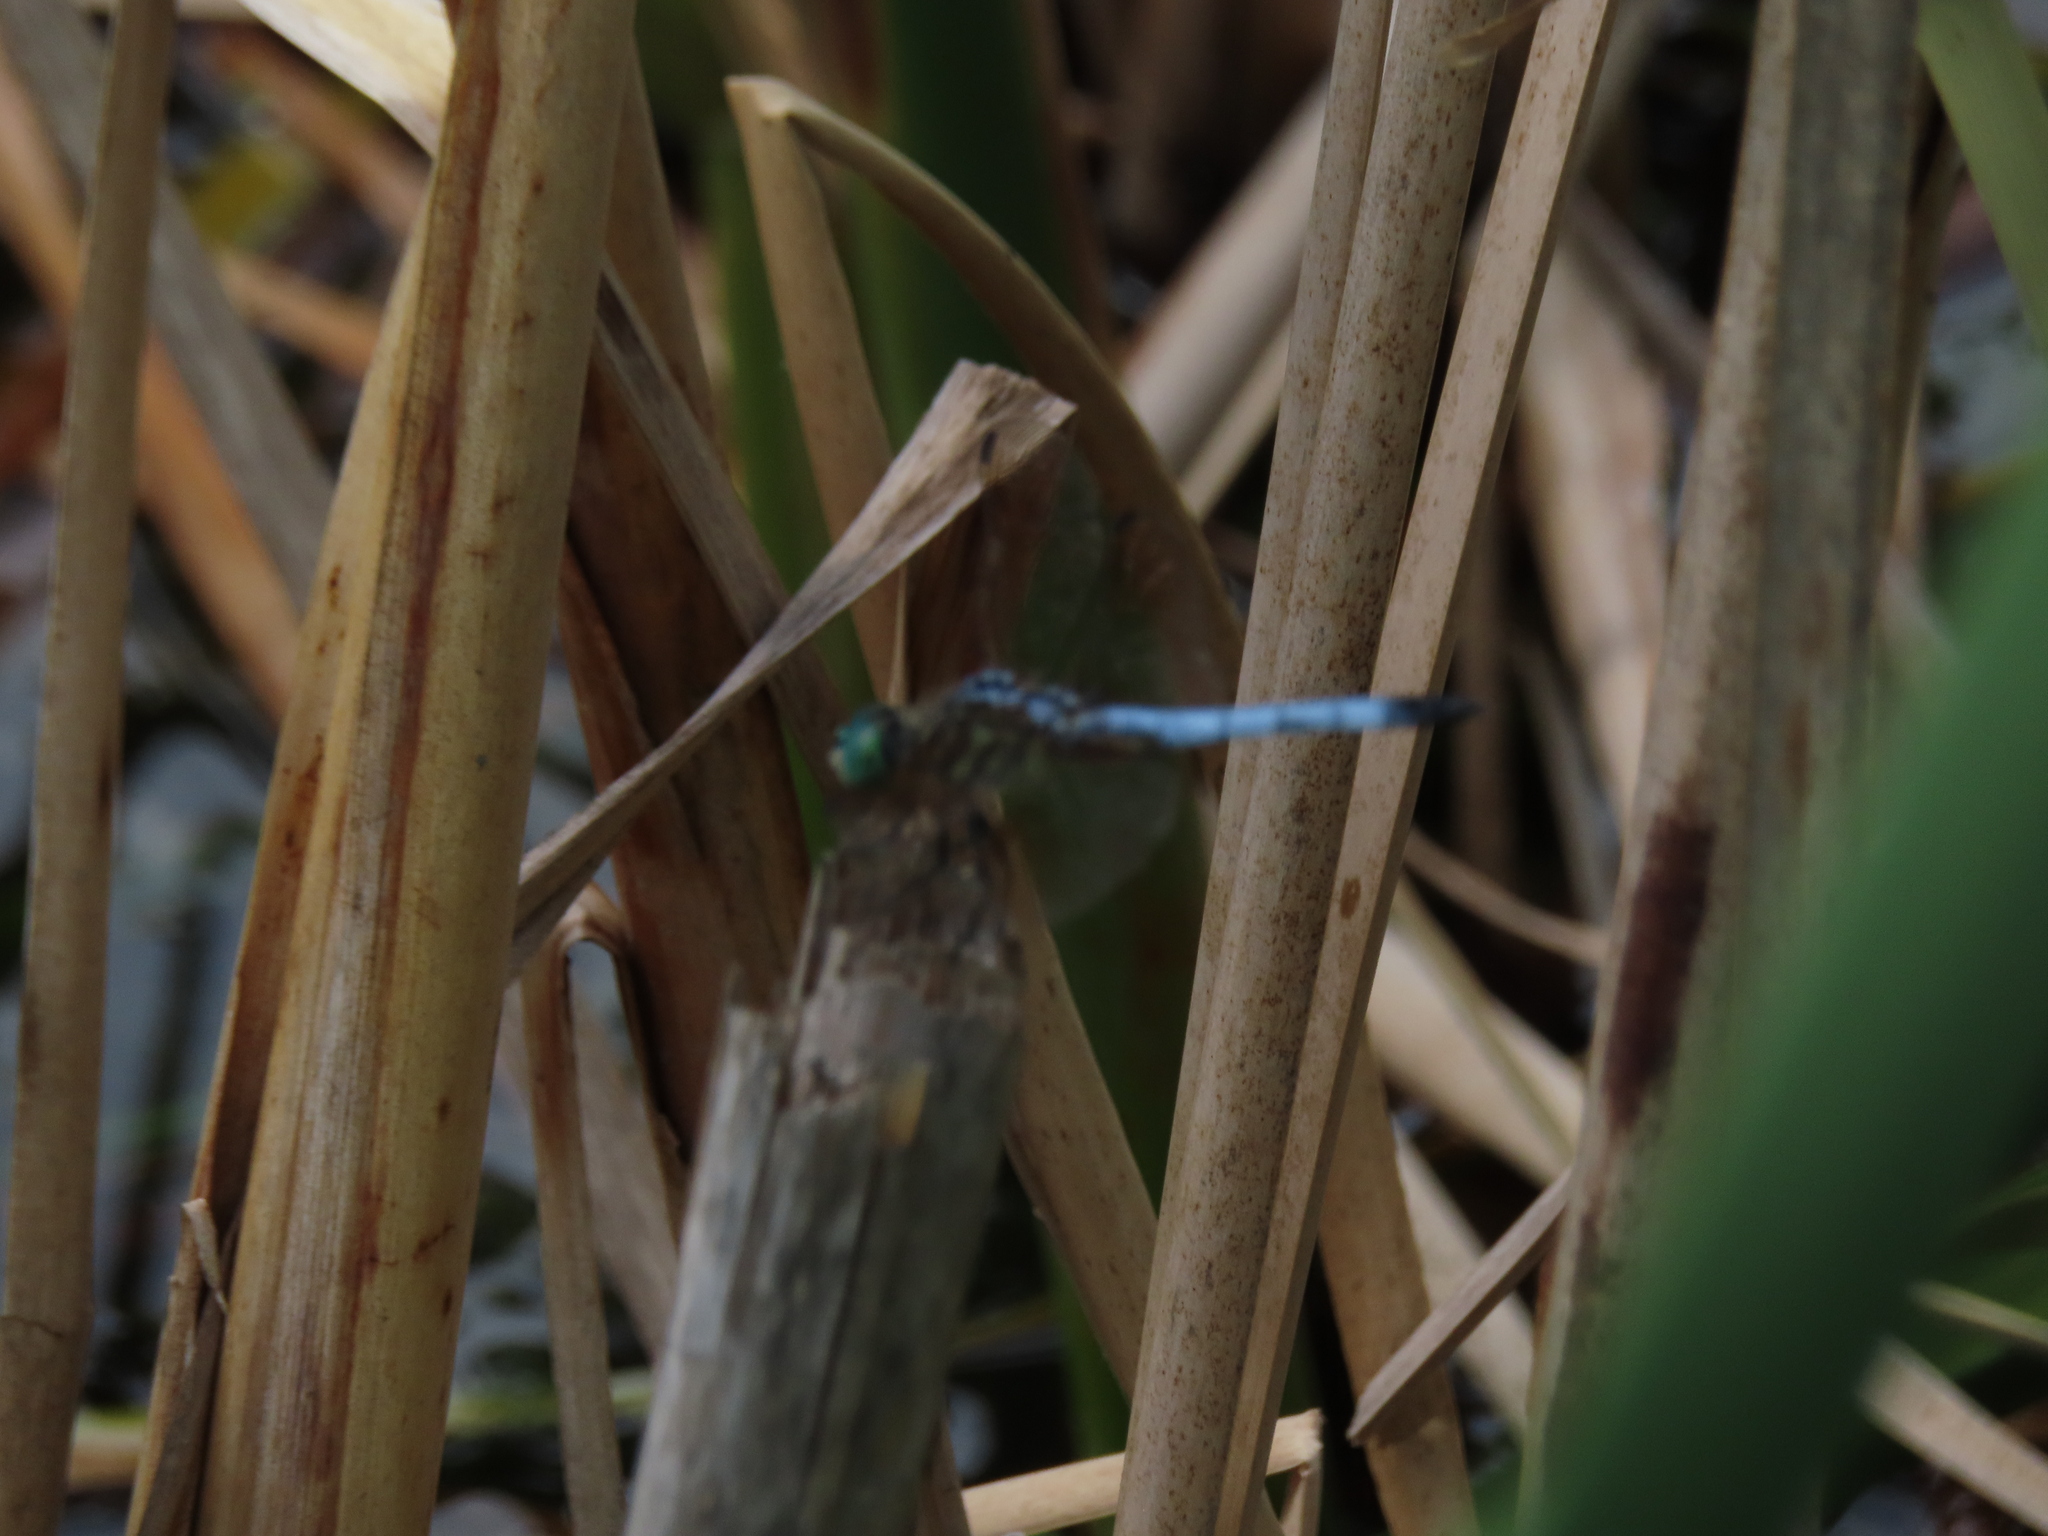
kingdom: Animalia
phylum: Arthropoda
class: Insecta
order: Odonata
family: Libellulidae
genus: Pachydiplax
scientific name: Pachydiplax longipennis
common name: Blue dasher
